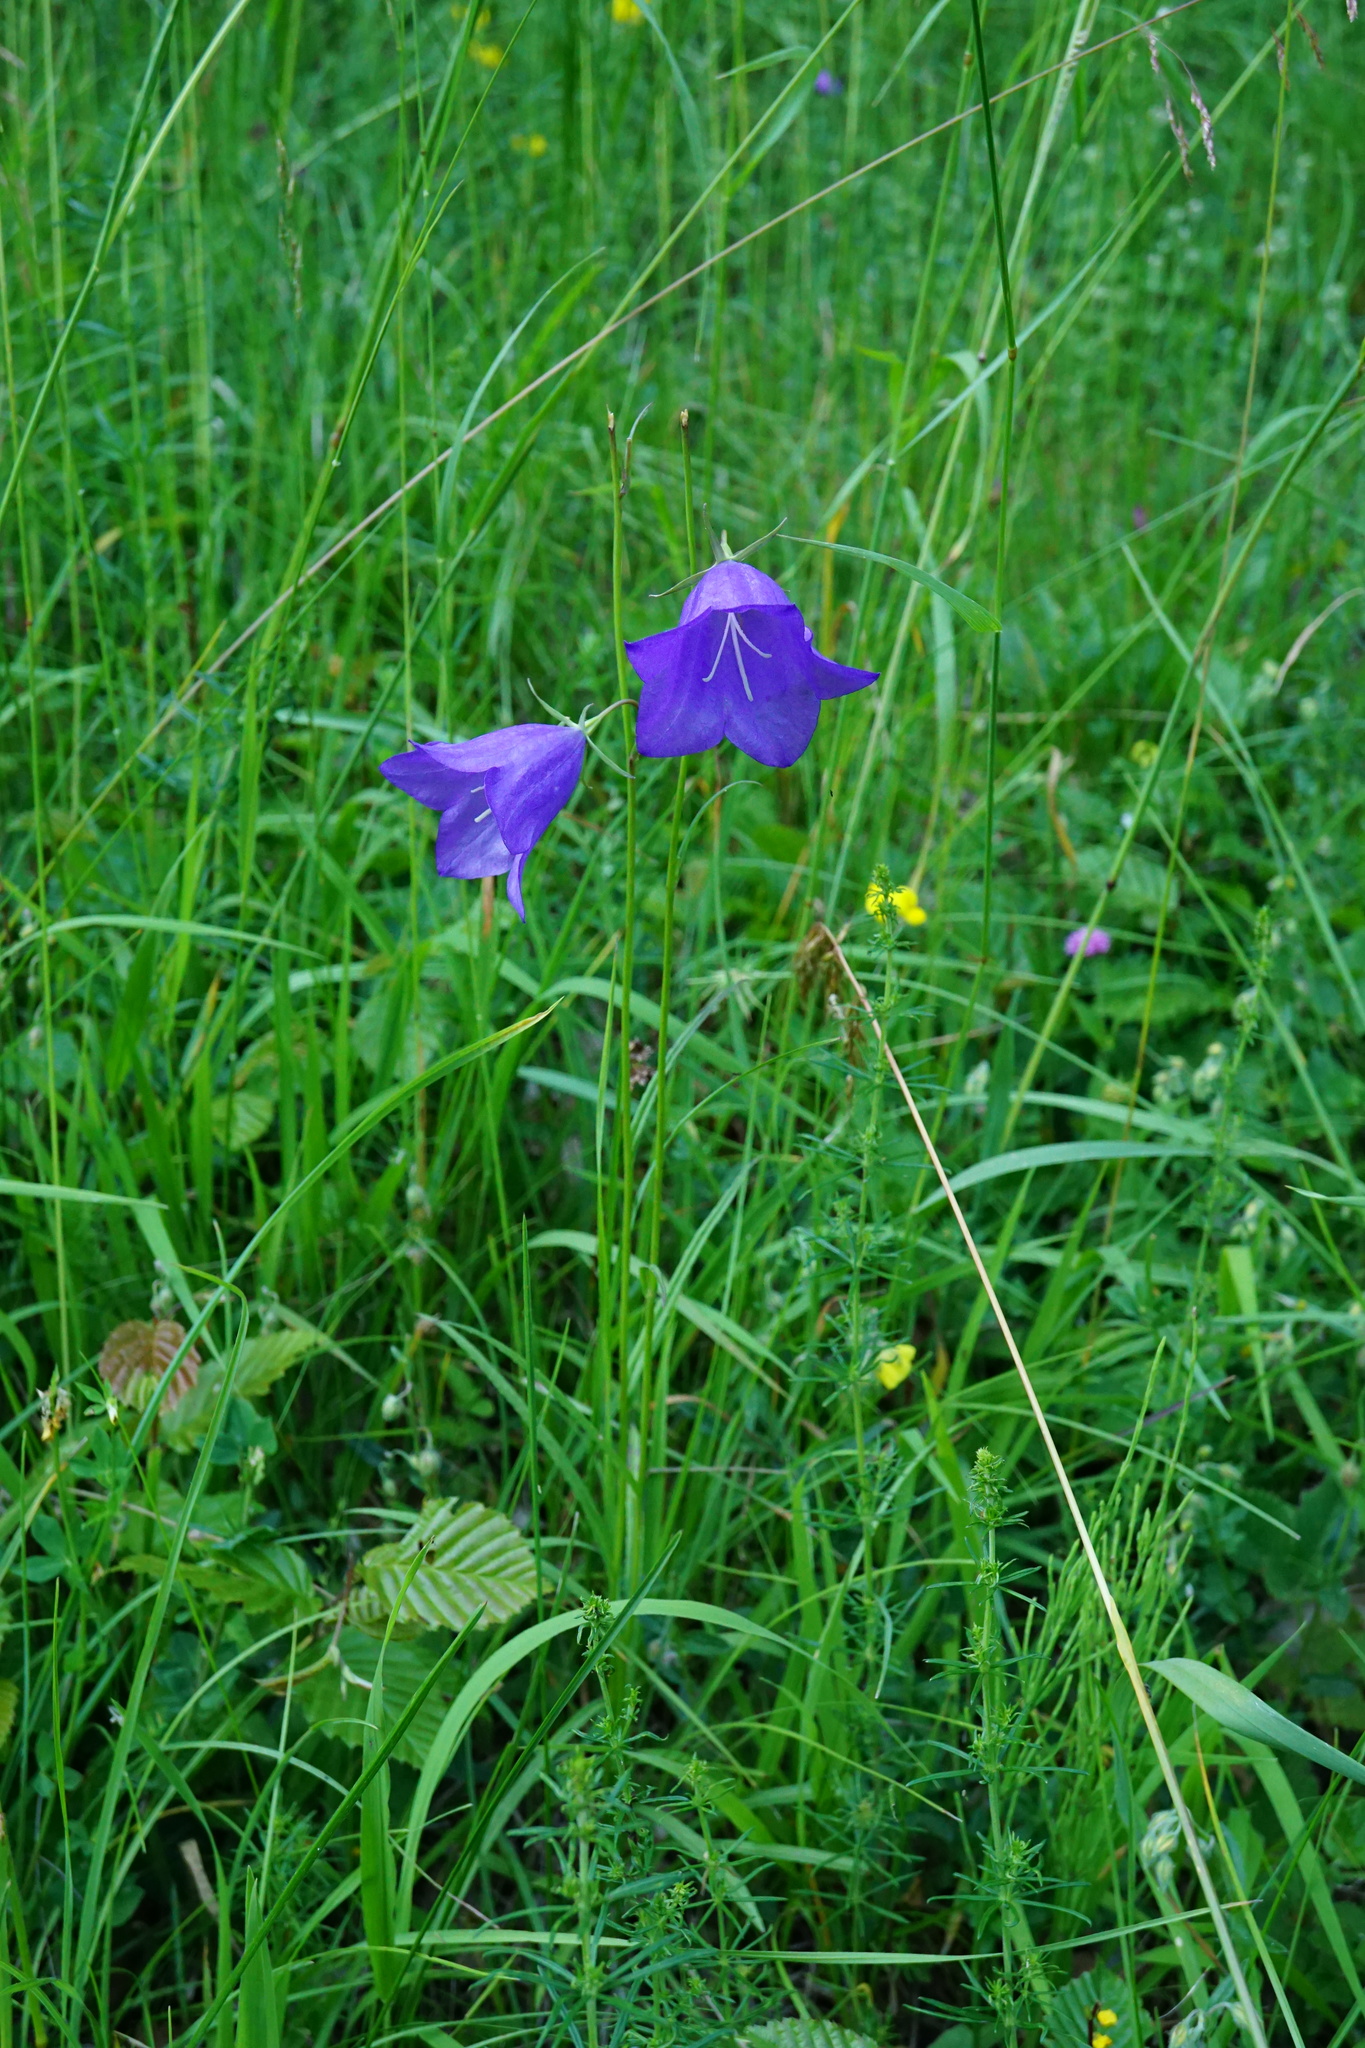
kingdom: Plantae
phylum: Tracheophyta
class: Magnoliopsida
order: Asterales
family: Campanulaceae
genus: Campanula
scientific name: Campanula persicifolia
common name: Peach-leaved bellflower
